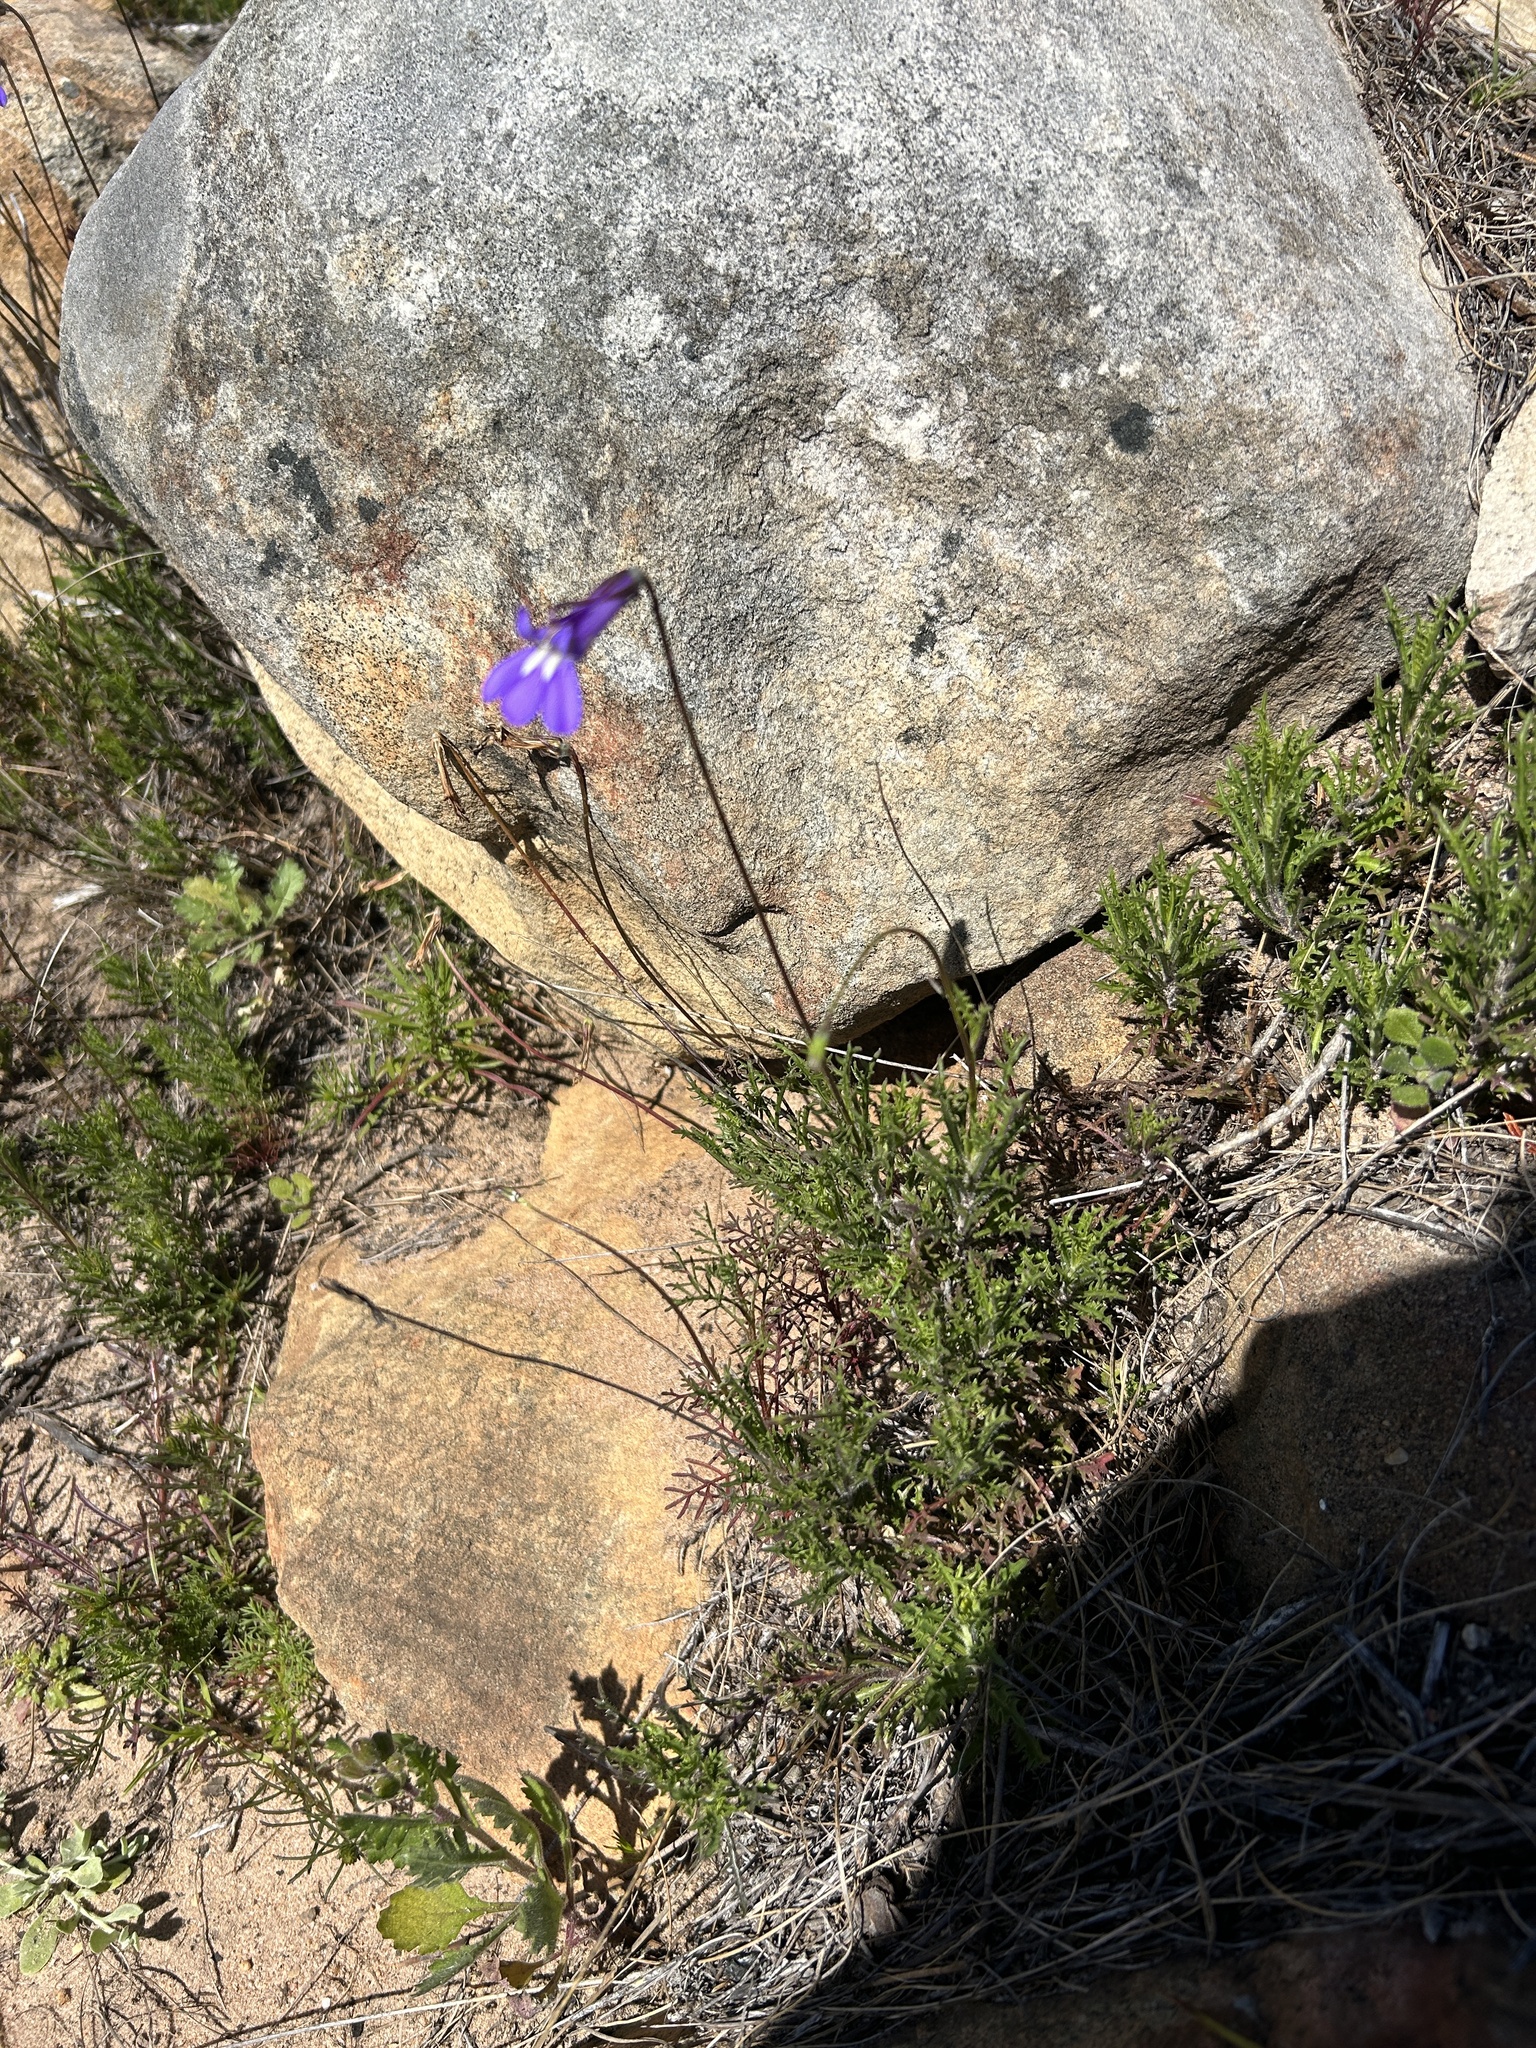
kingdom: Plantae
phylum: Tracheophyta
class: Magnoliopsida
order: Asterales
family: Campanulaceae
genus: Lobelia
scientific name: Lobelia coronopifolia
